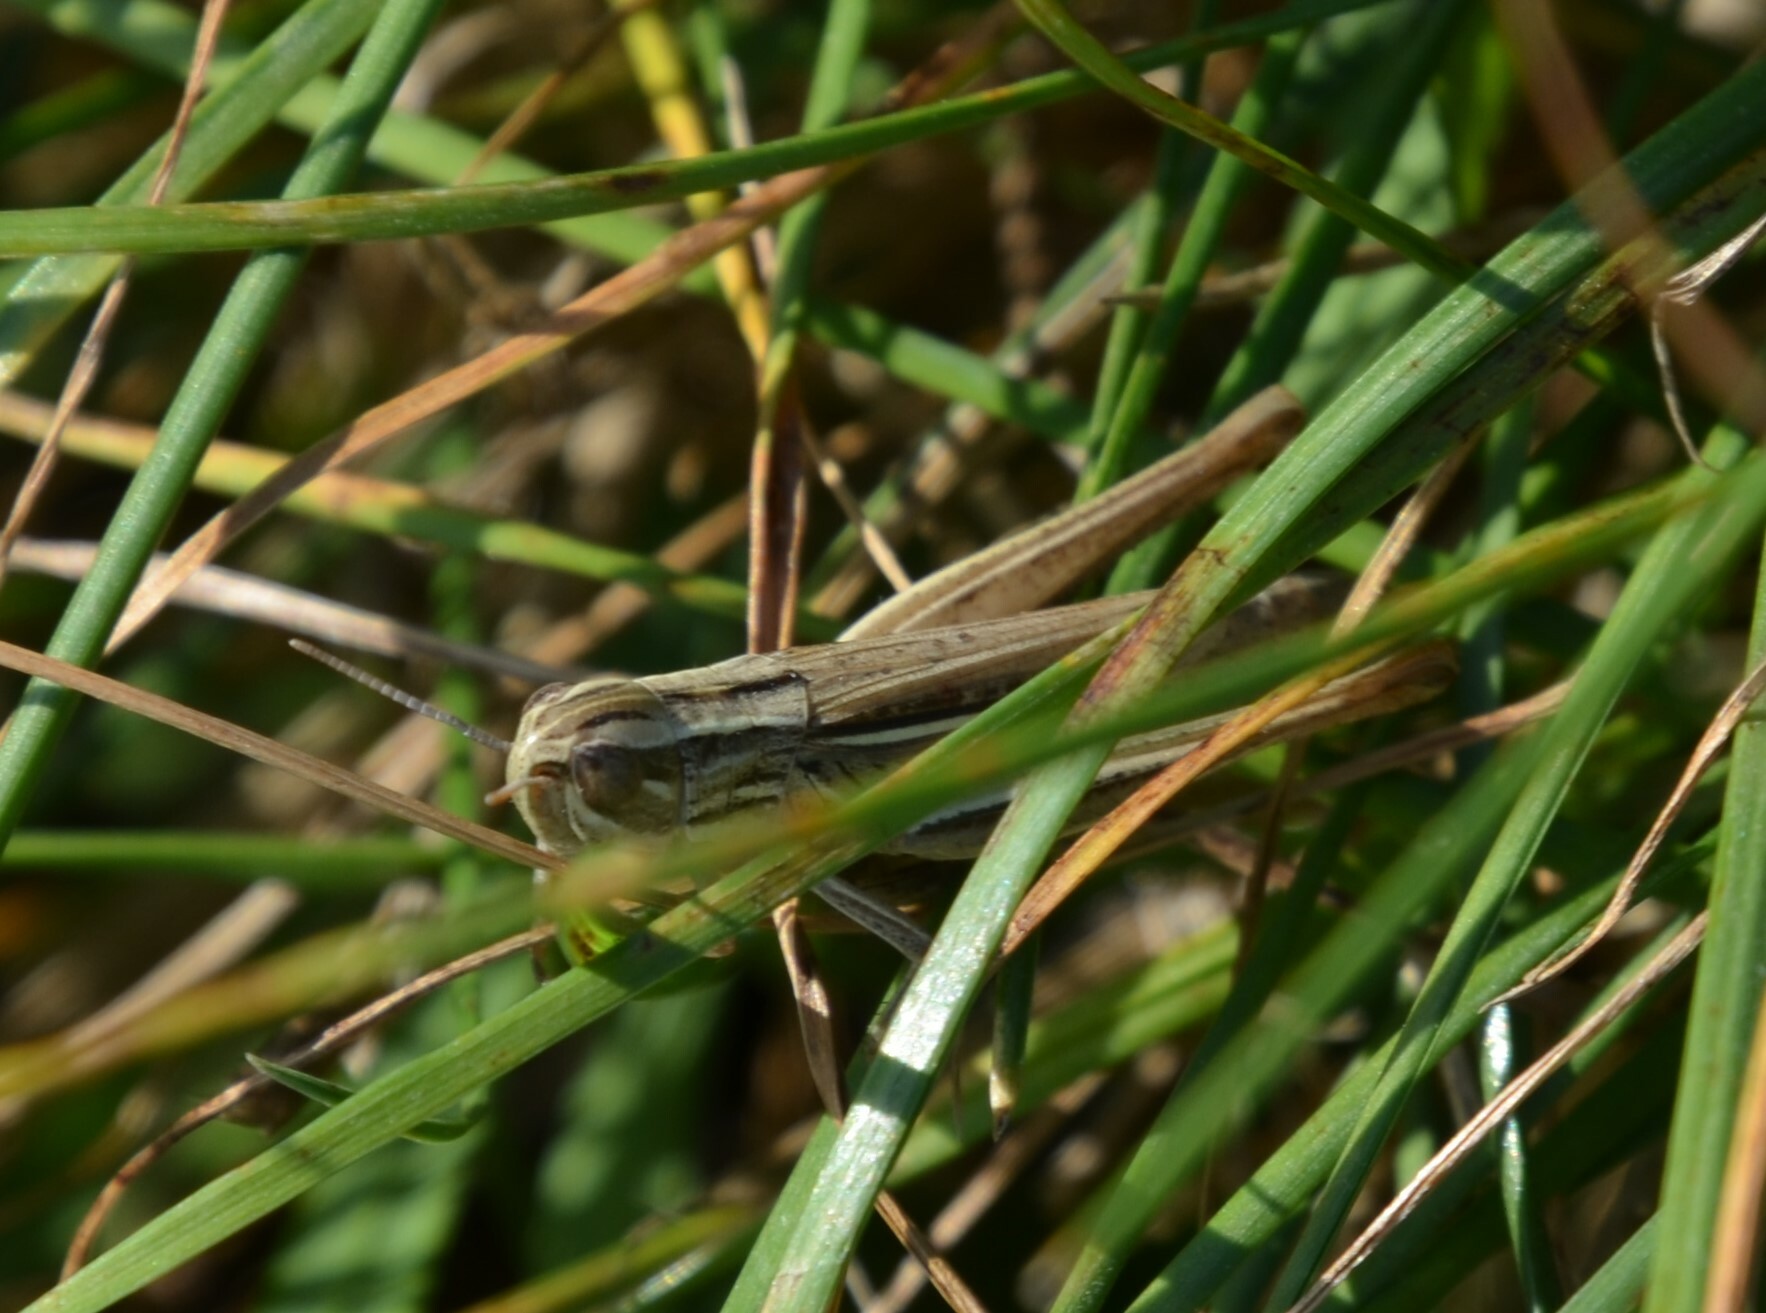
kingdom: Animalia
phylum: Arthropoda
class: Insecta
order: Orthoptera
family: Acrididae
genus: Euchorthippus
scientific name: Euchorthippus declivus
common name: Common straw grasshopper
